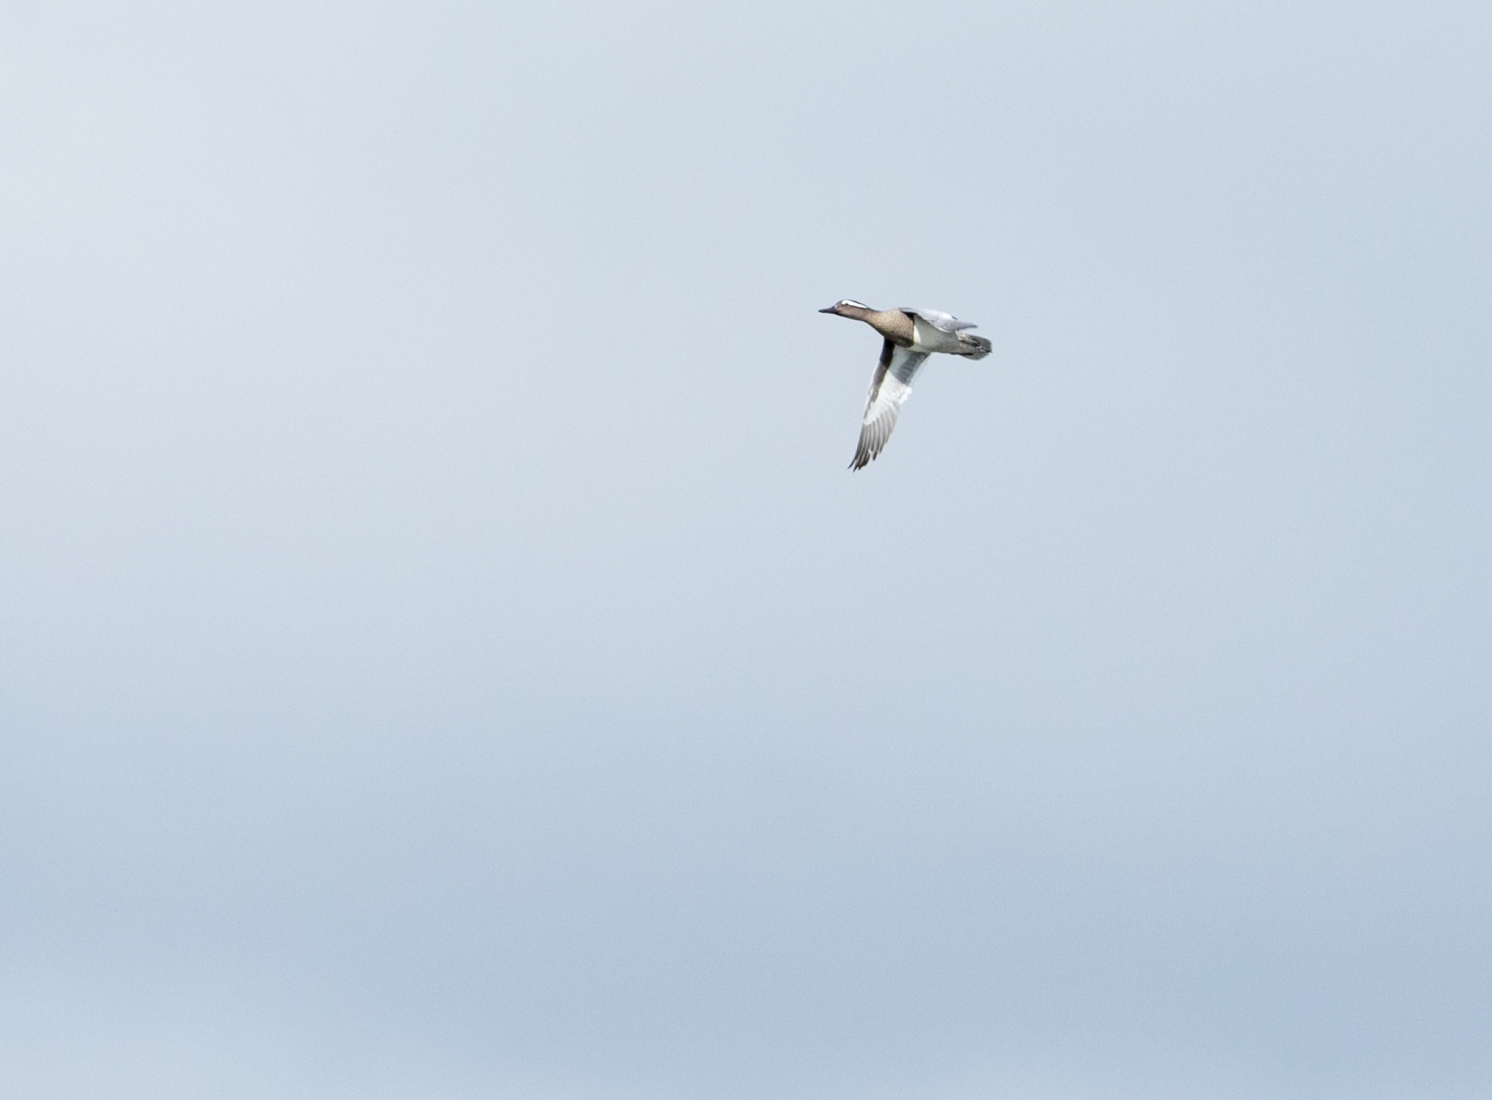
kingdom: Animalia
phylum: Chordata
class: Aves
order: Anseriformes
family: Anatidae
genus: Spatula
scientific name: Spatula querquedula
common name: Garganey
